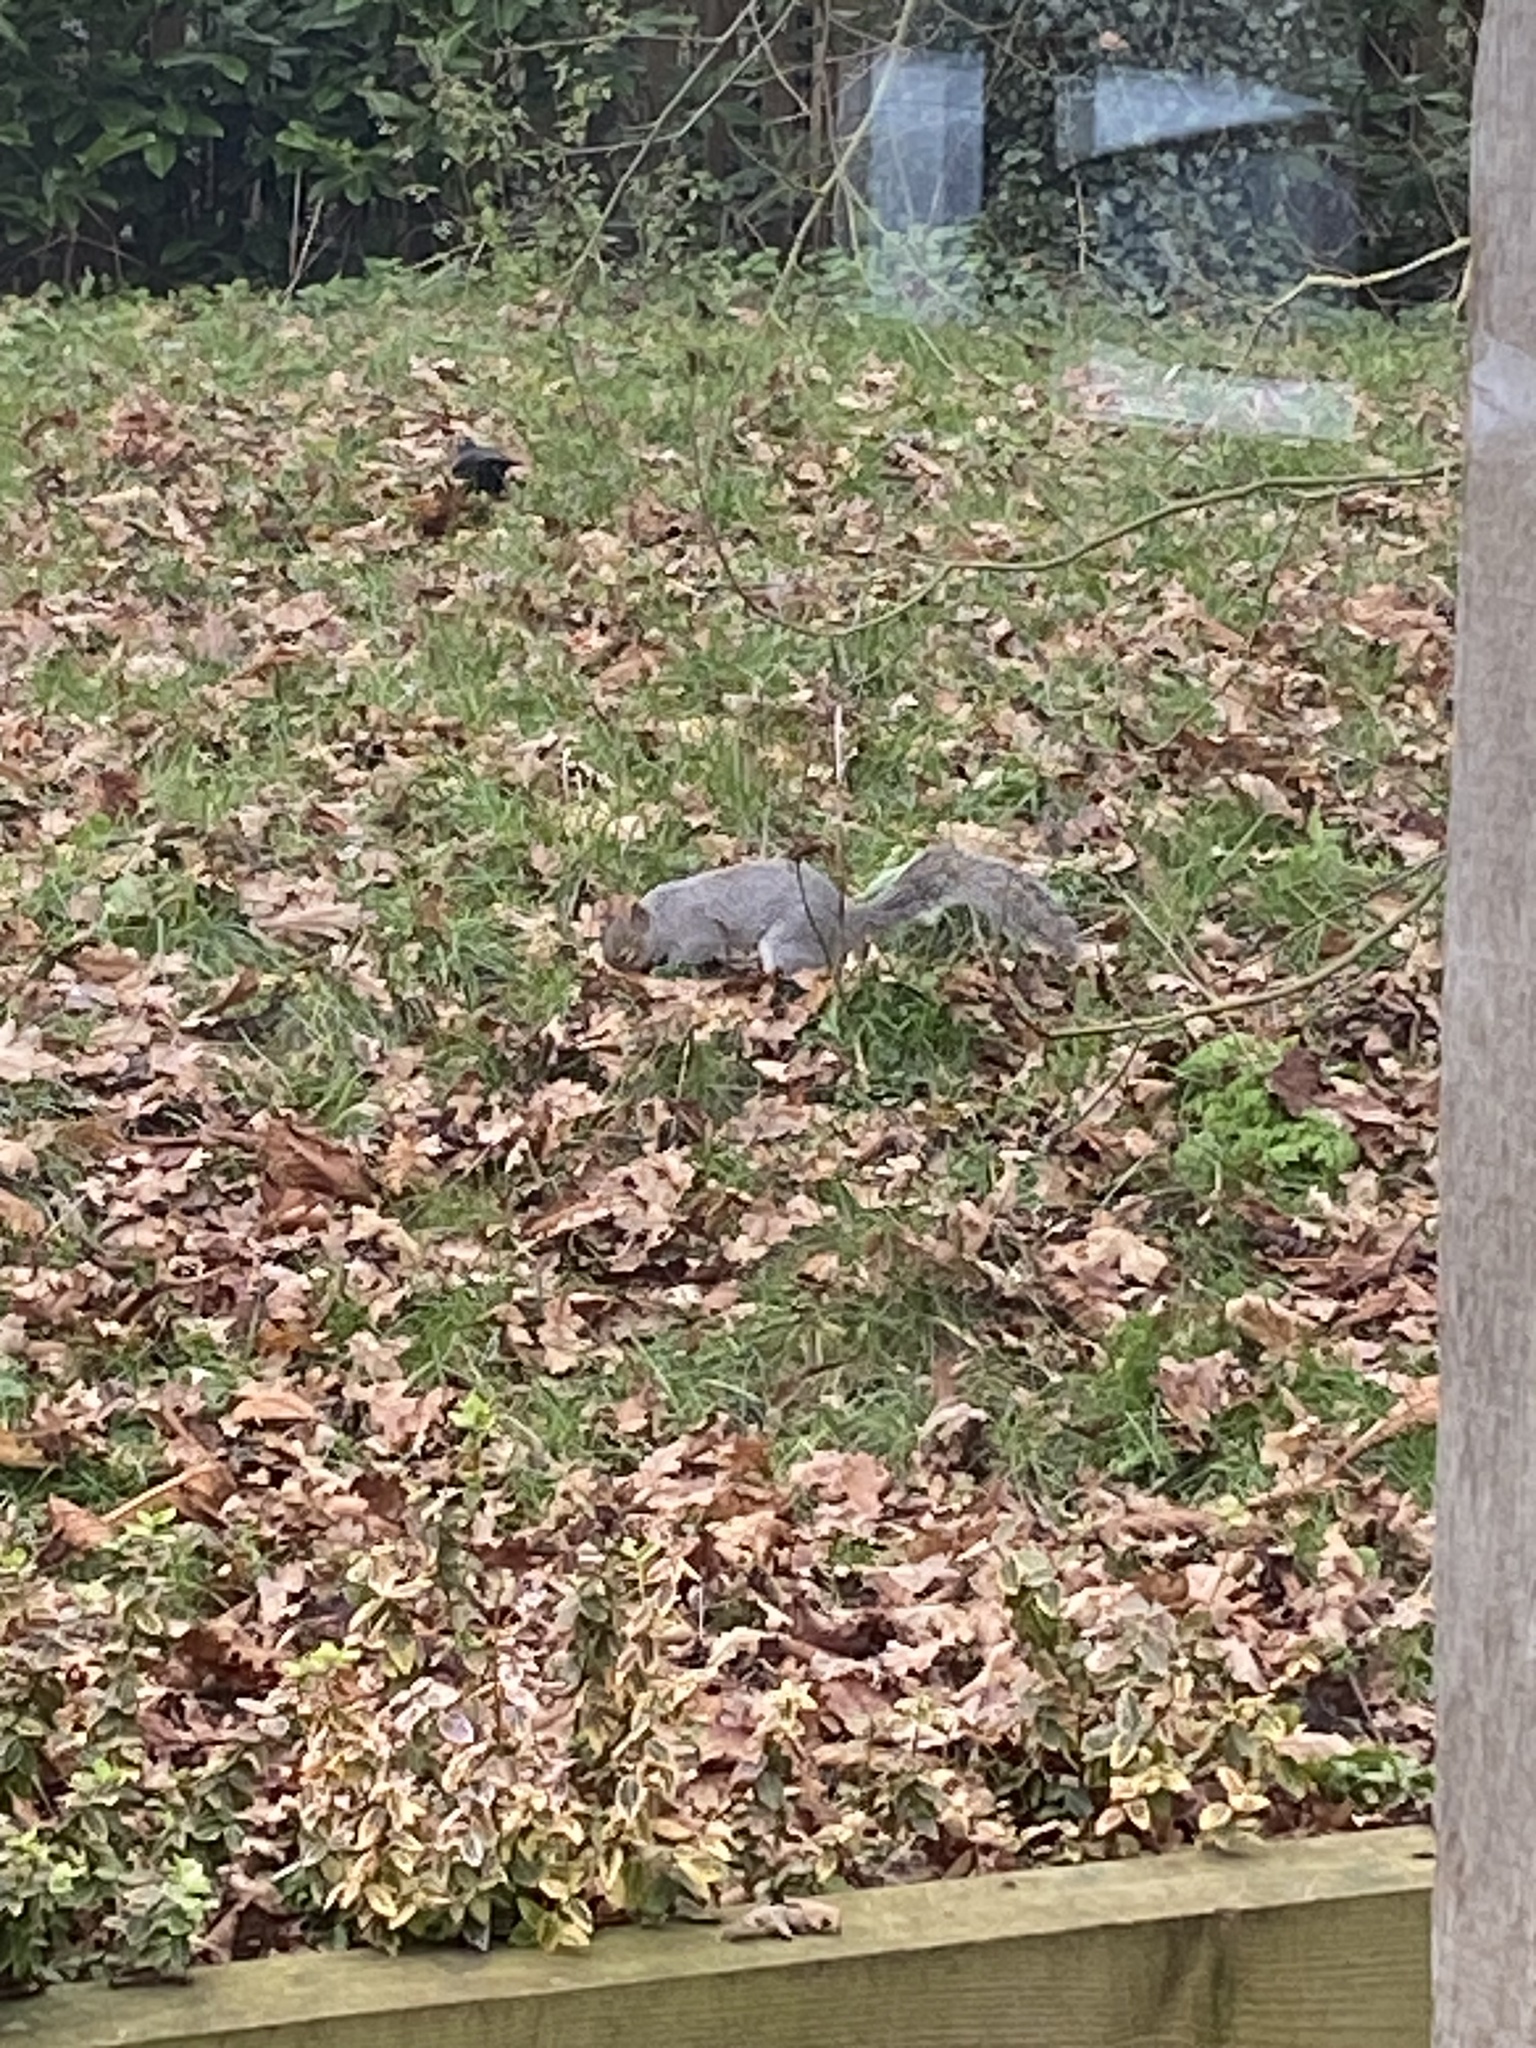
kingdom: Animalia
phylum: Chordata
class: Mammalia
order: Rodentia
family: Sciuridae
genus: Sciurus
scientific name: Sciurus carolinensis
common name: Eastern gray squirrel
